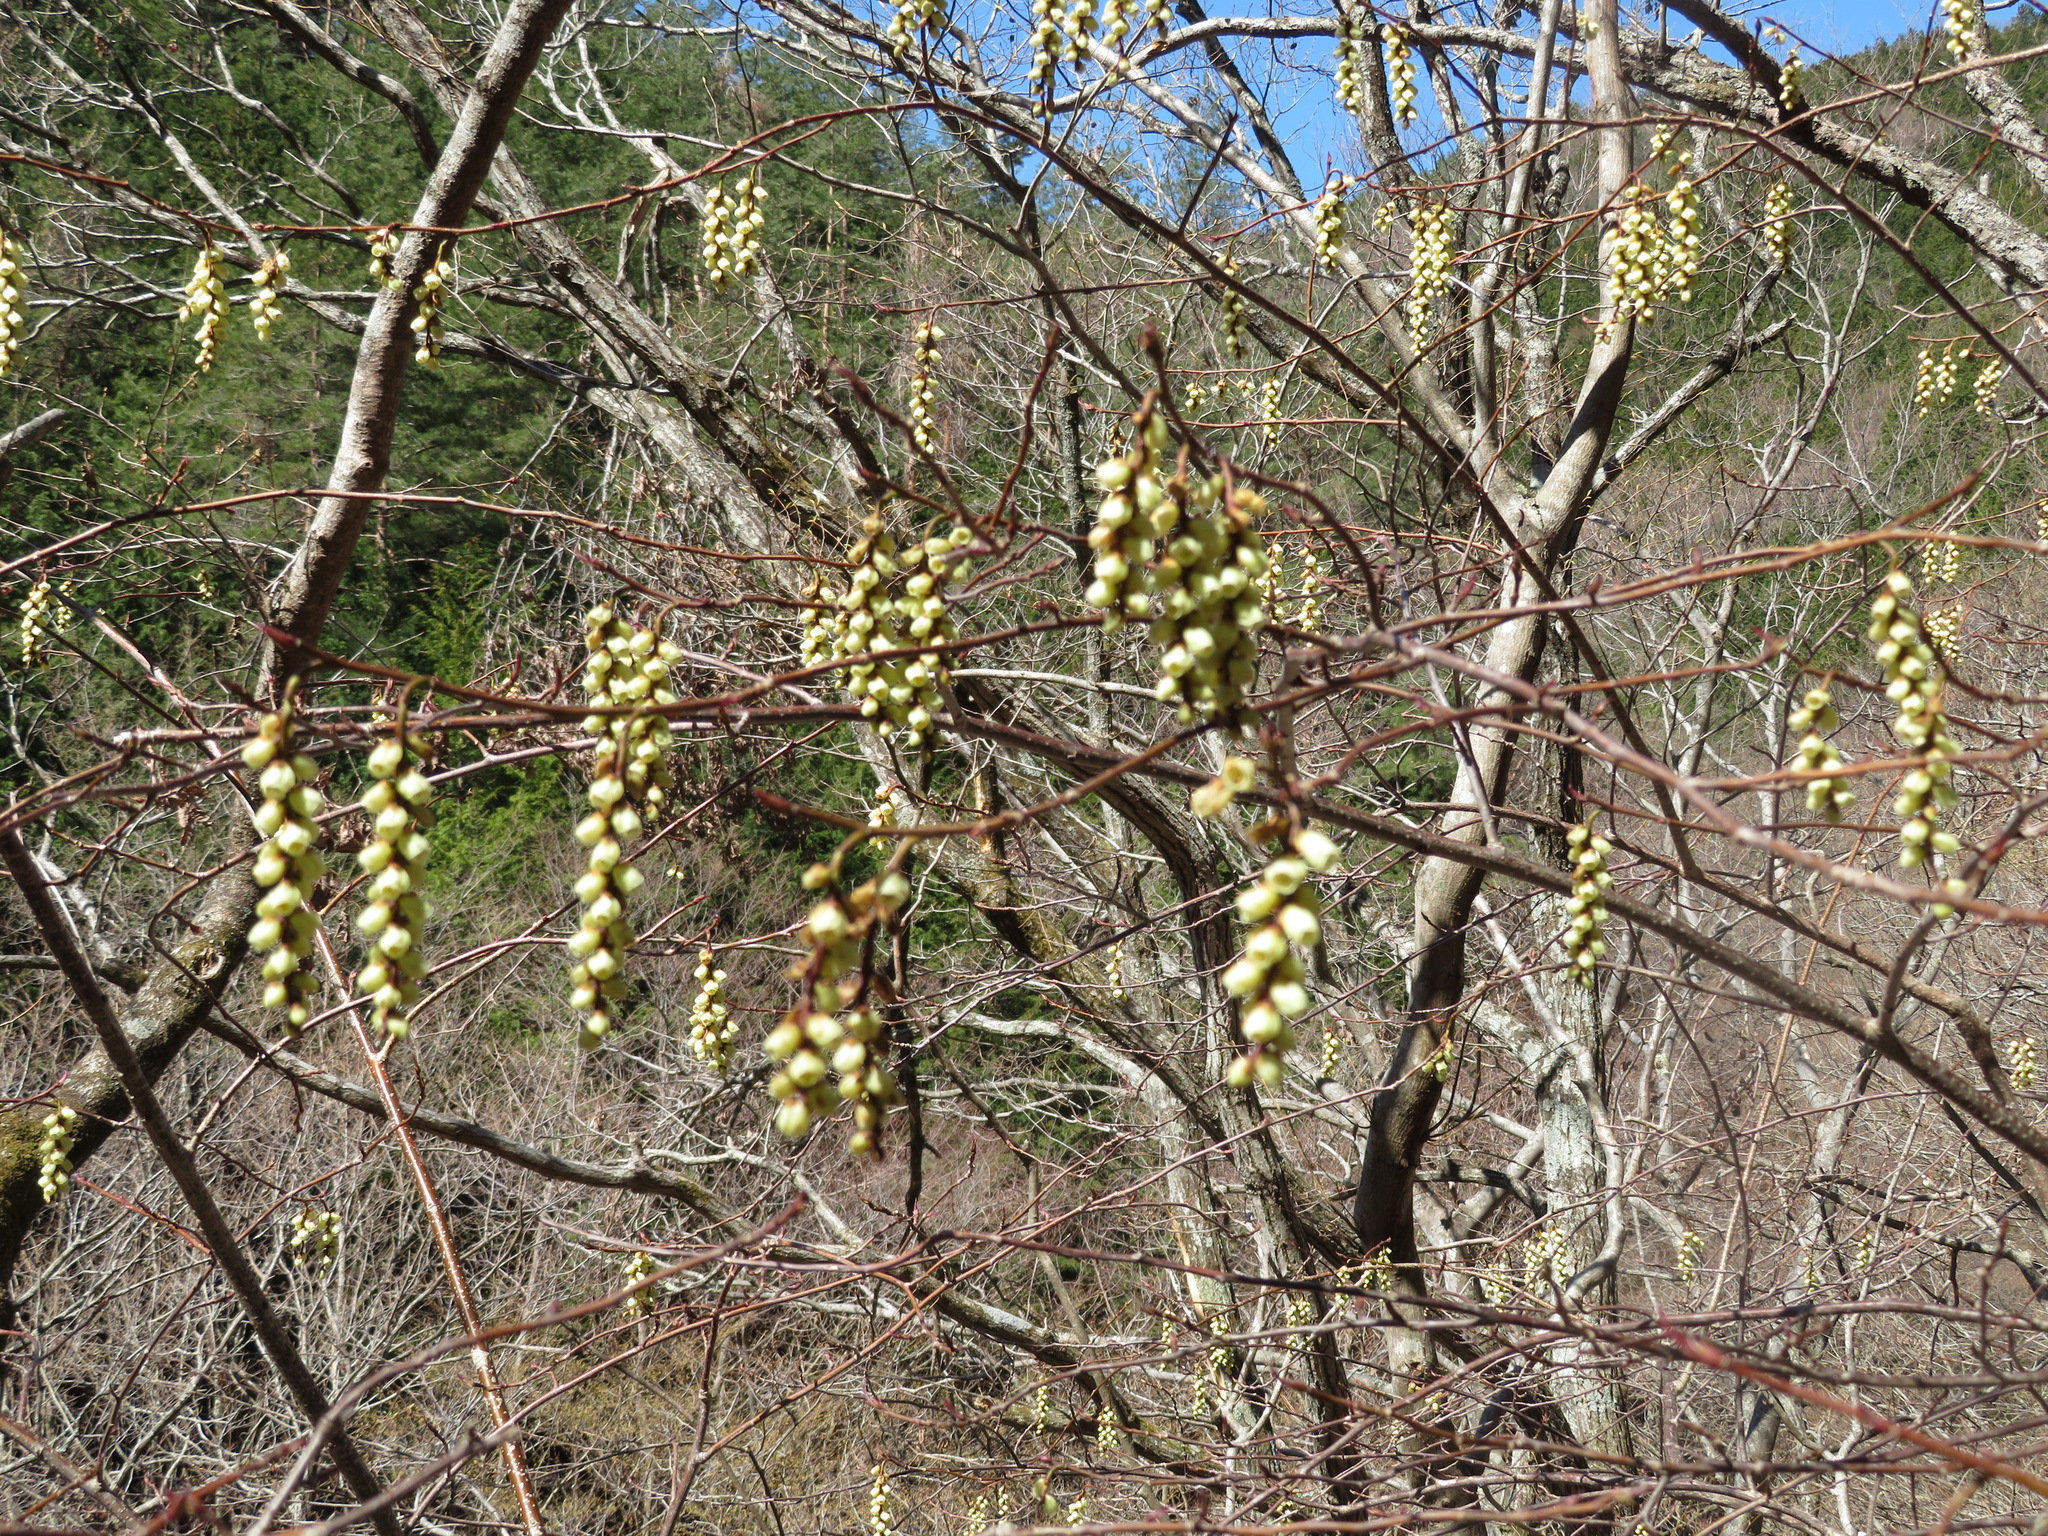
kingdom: Plantae
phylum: Tracheophyta
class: Magnoliopsida
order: Crossosomatales
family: Stachyuraceae
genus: Stachyurus
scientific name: Stachyurus praecox
